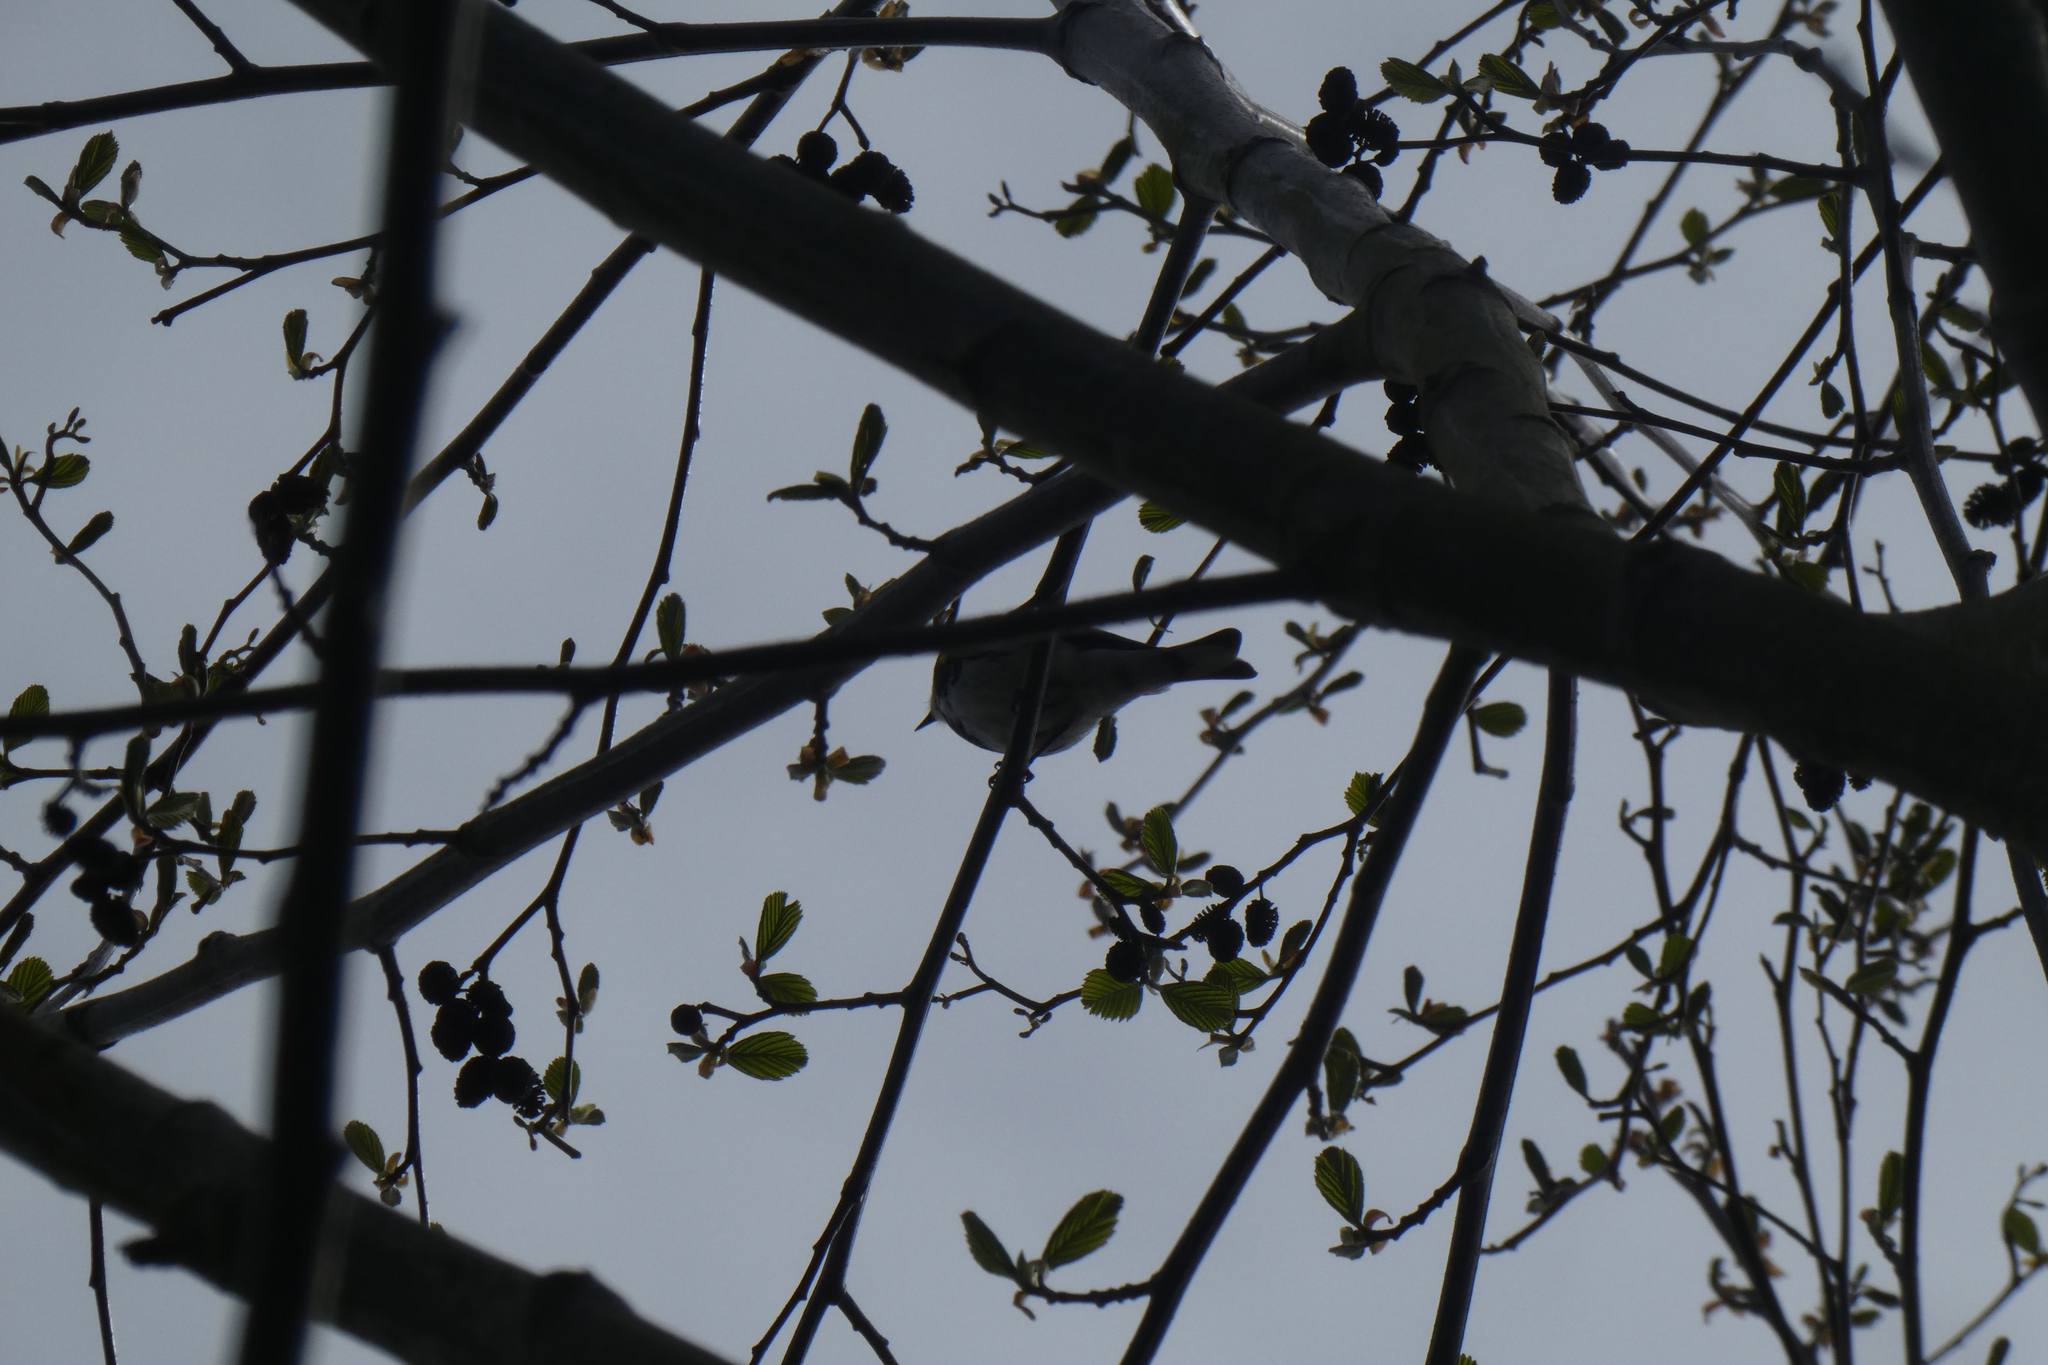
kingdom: Animalia
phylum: Chordata
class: Aves
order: Passeriformes
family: Parulidae
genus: Setophaga
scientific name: Setophaga coronata
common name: Myrtle warbler
